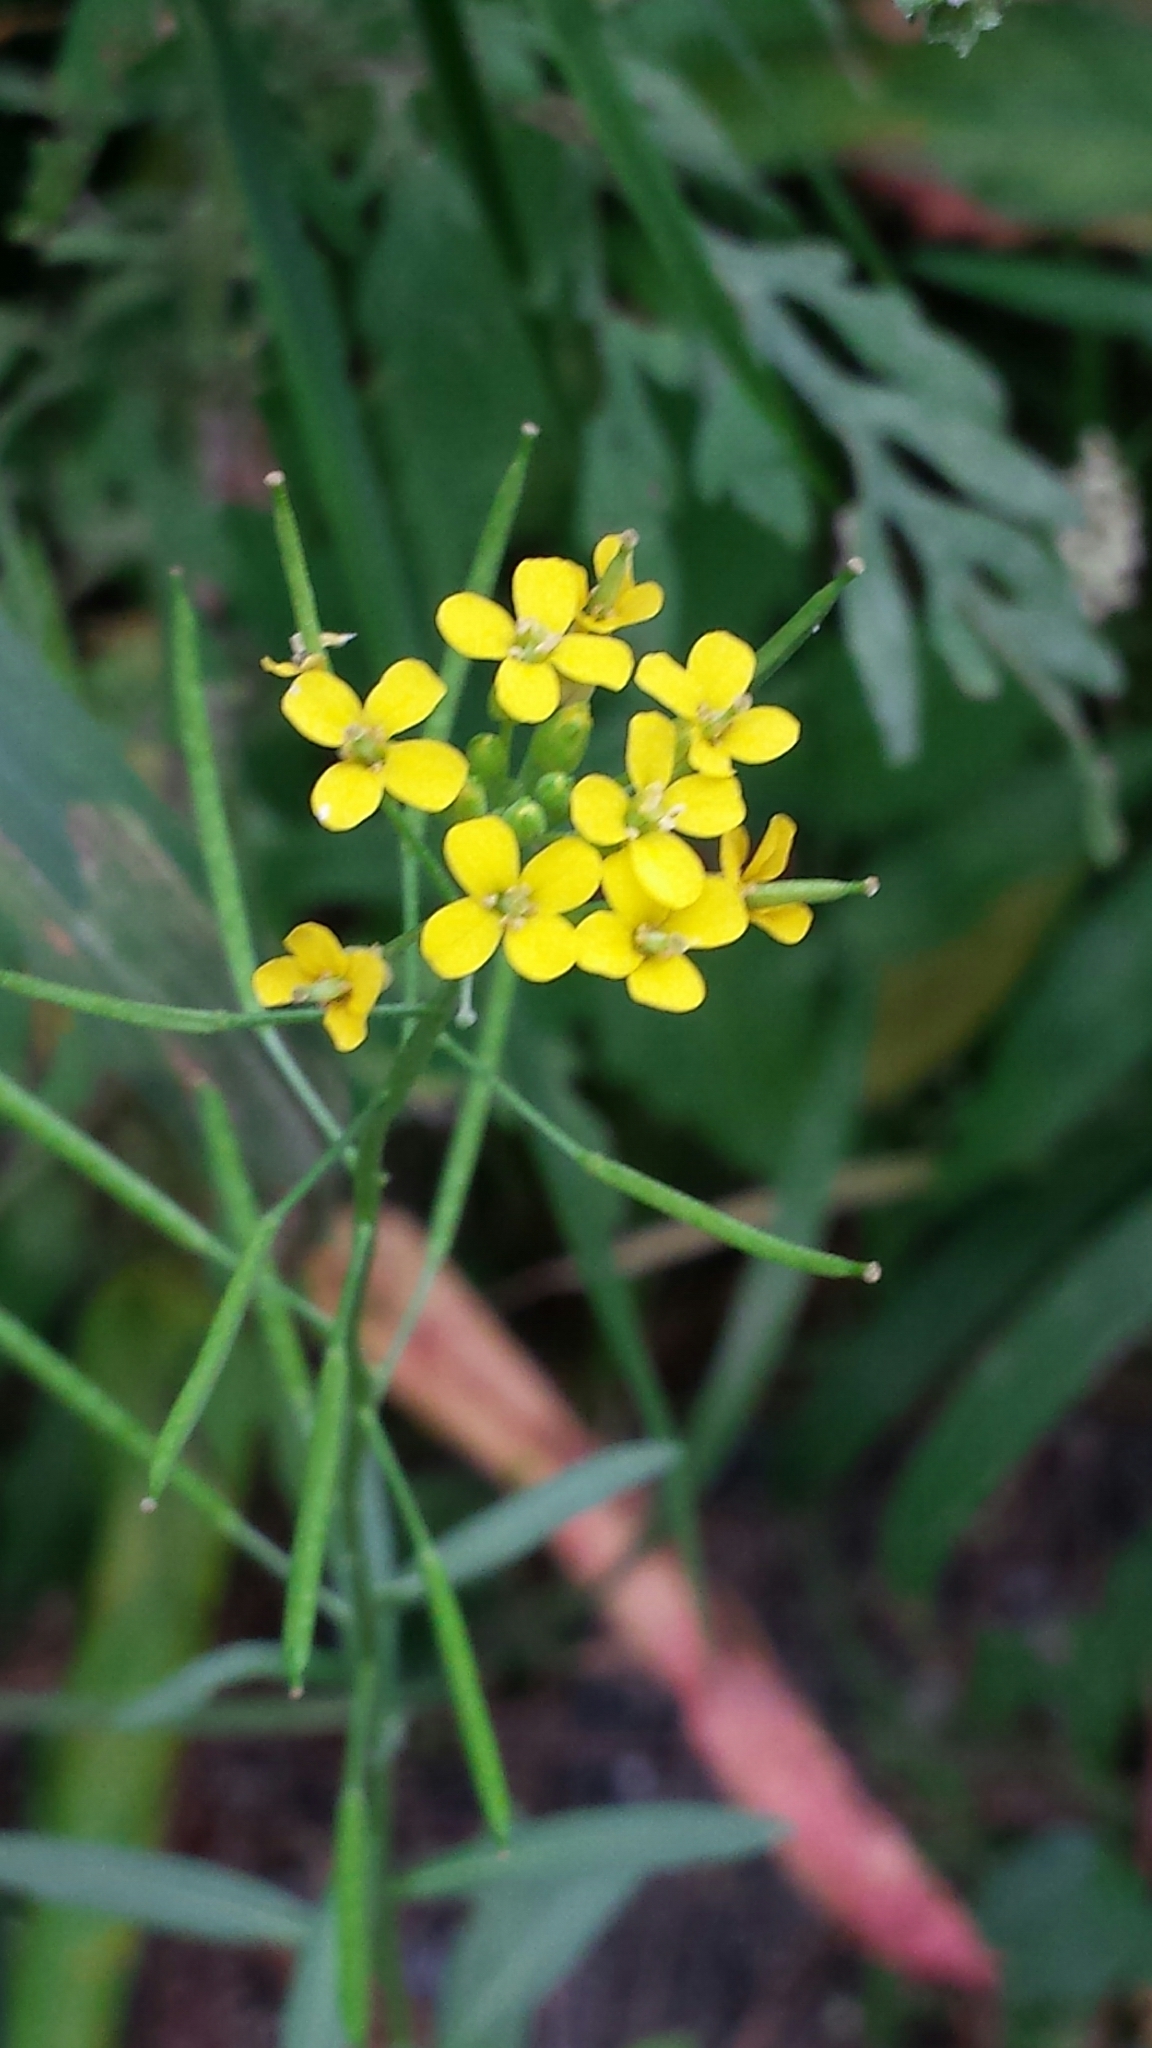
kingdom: Plantae
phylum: Tracheophyta
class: Magnoliopsida
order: Brassicales
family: Brassicaceae
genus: Erysimum
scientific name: Erysimum cheiranthoides
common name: Treacle mustard
